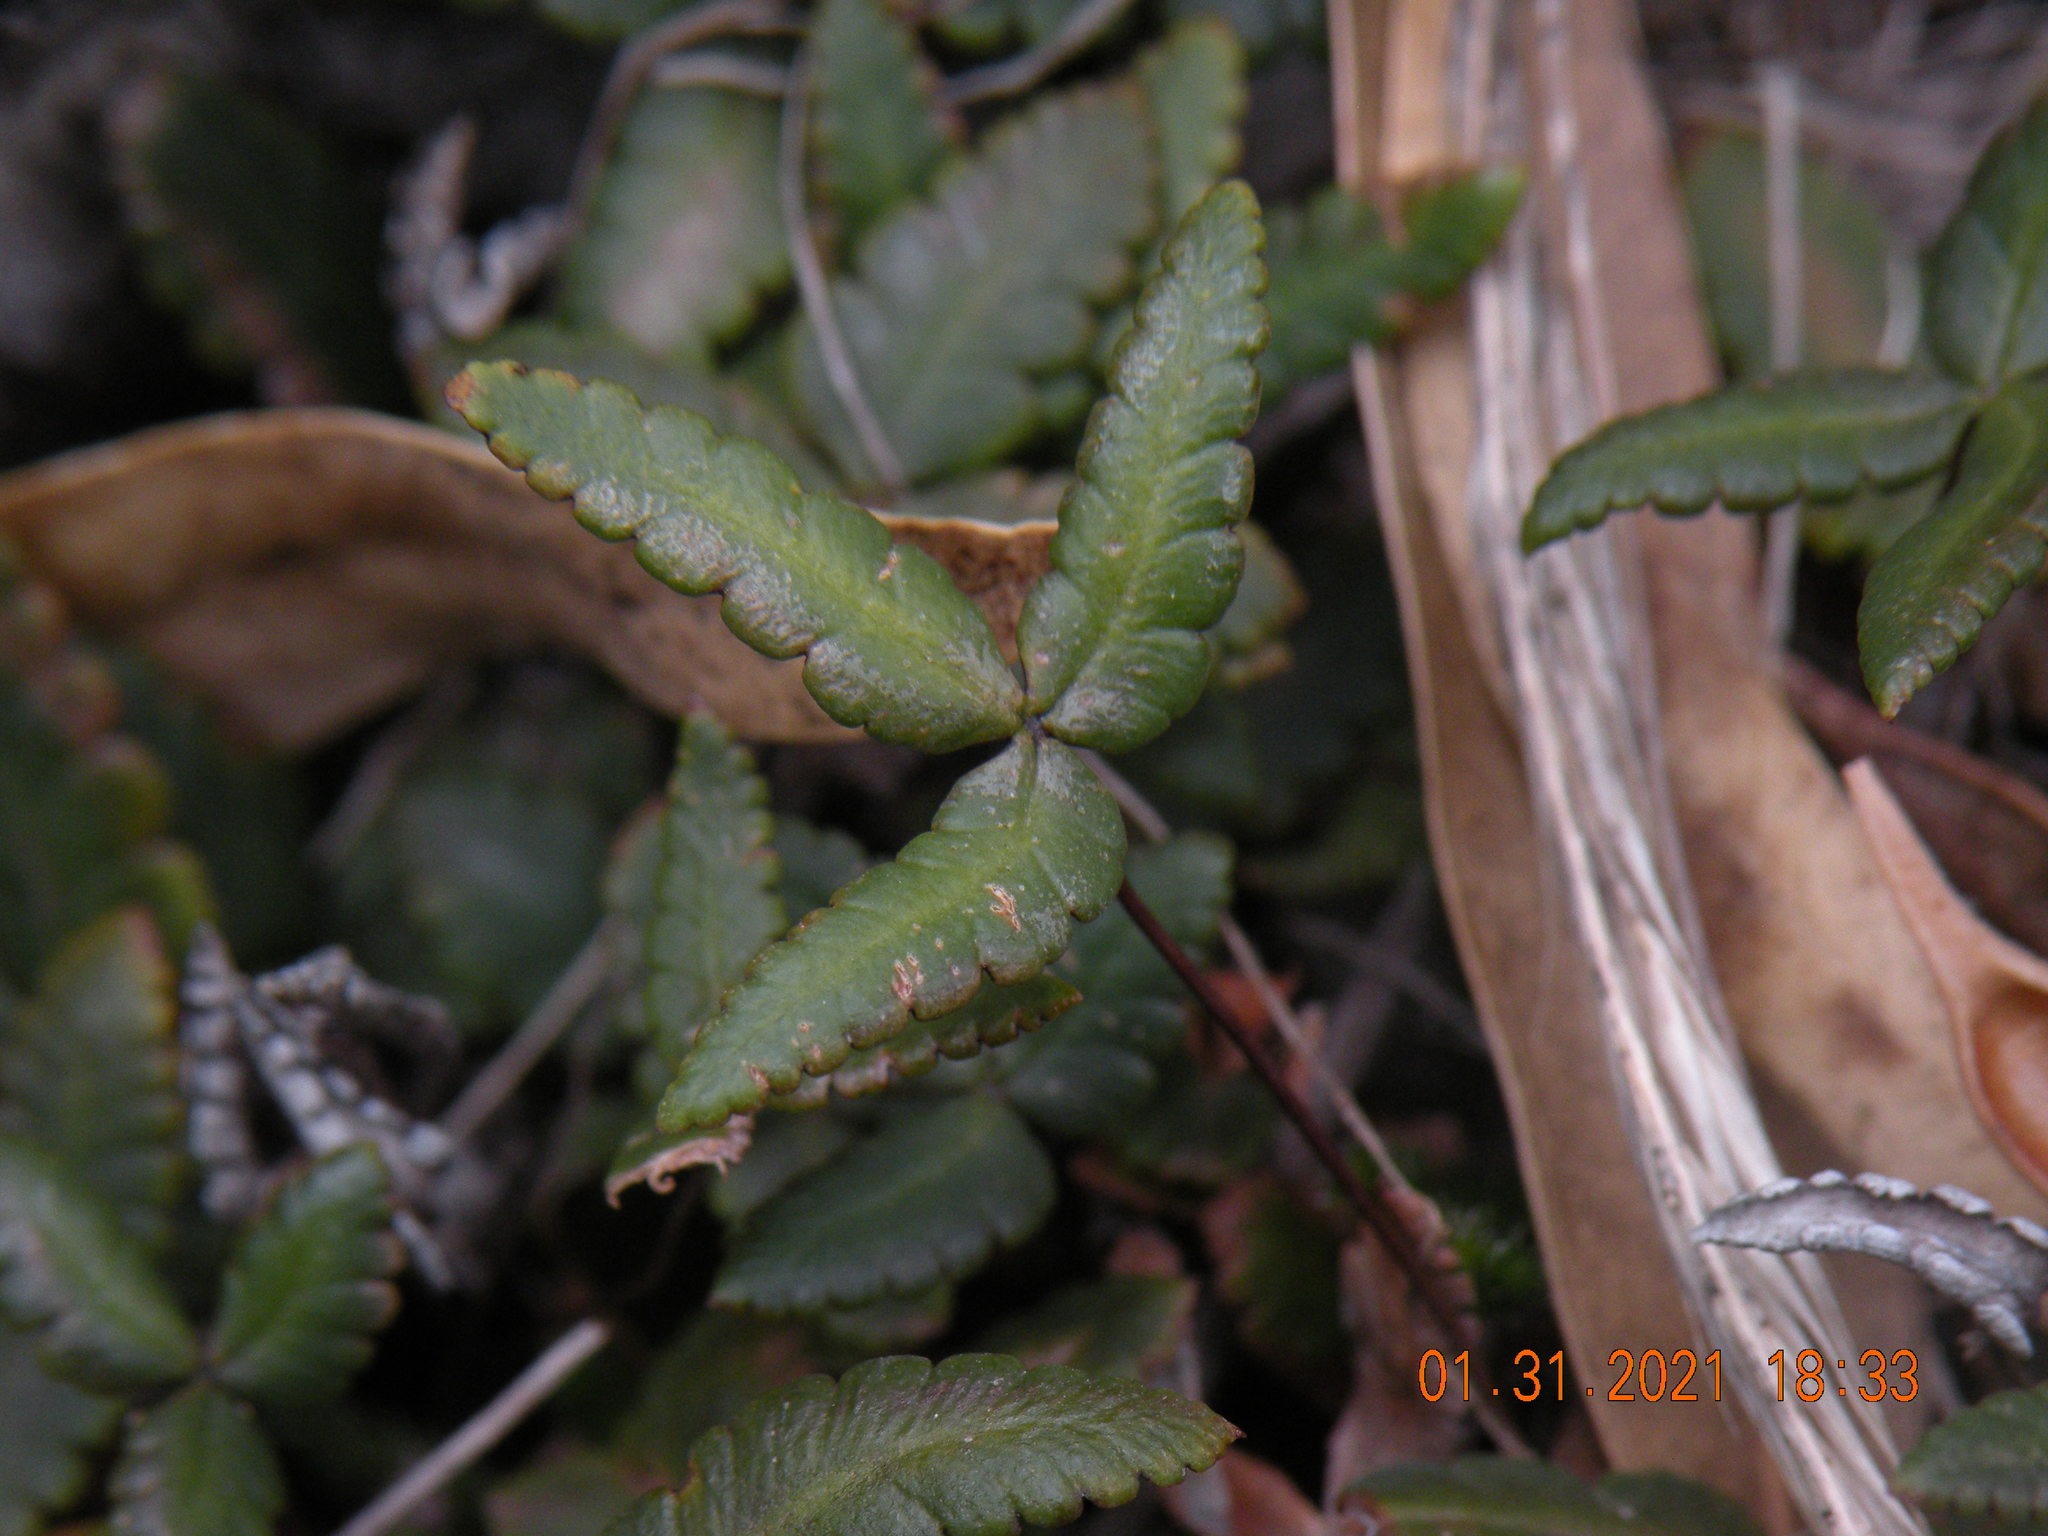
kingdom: Plantae
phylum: Tracheophyta
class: Polypodiopsida
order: Polypodiales
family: Pteridaceae
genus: Doryopteris
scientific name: Doryopteris triphylla
